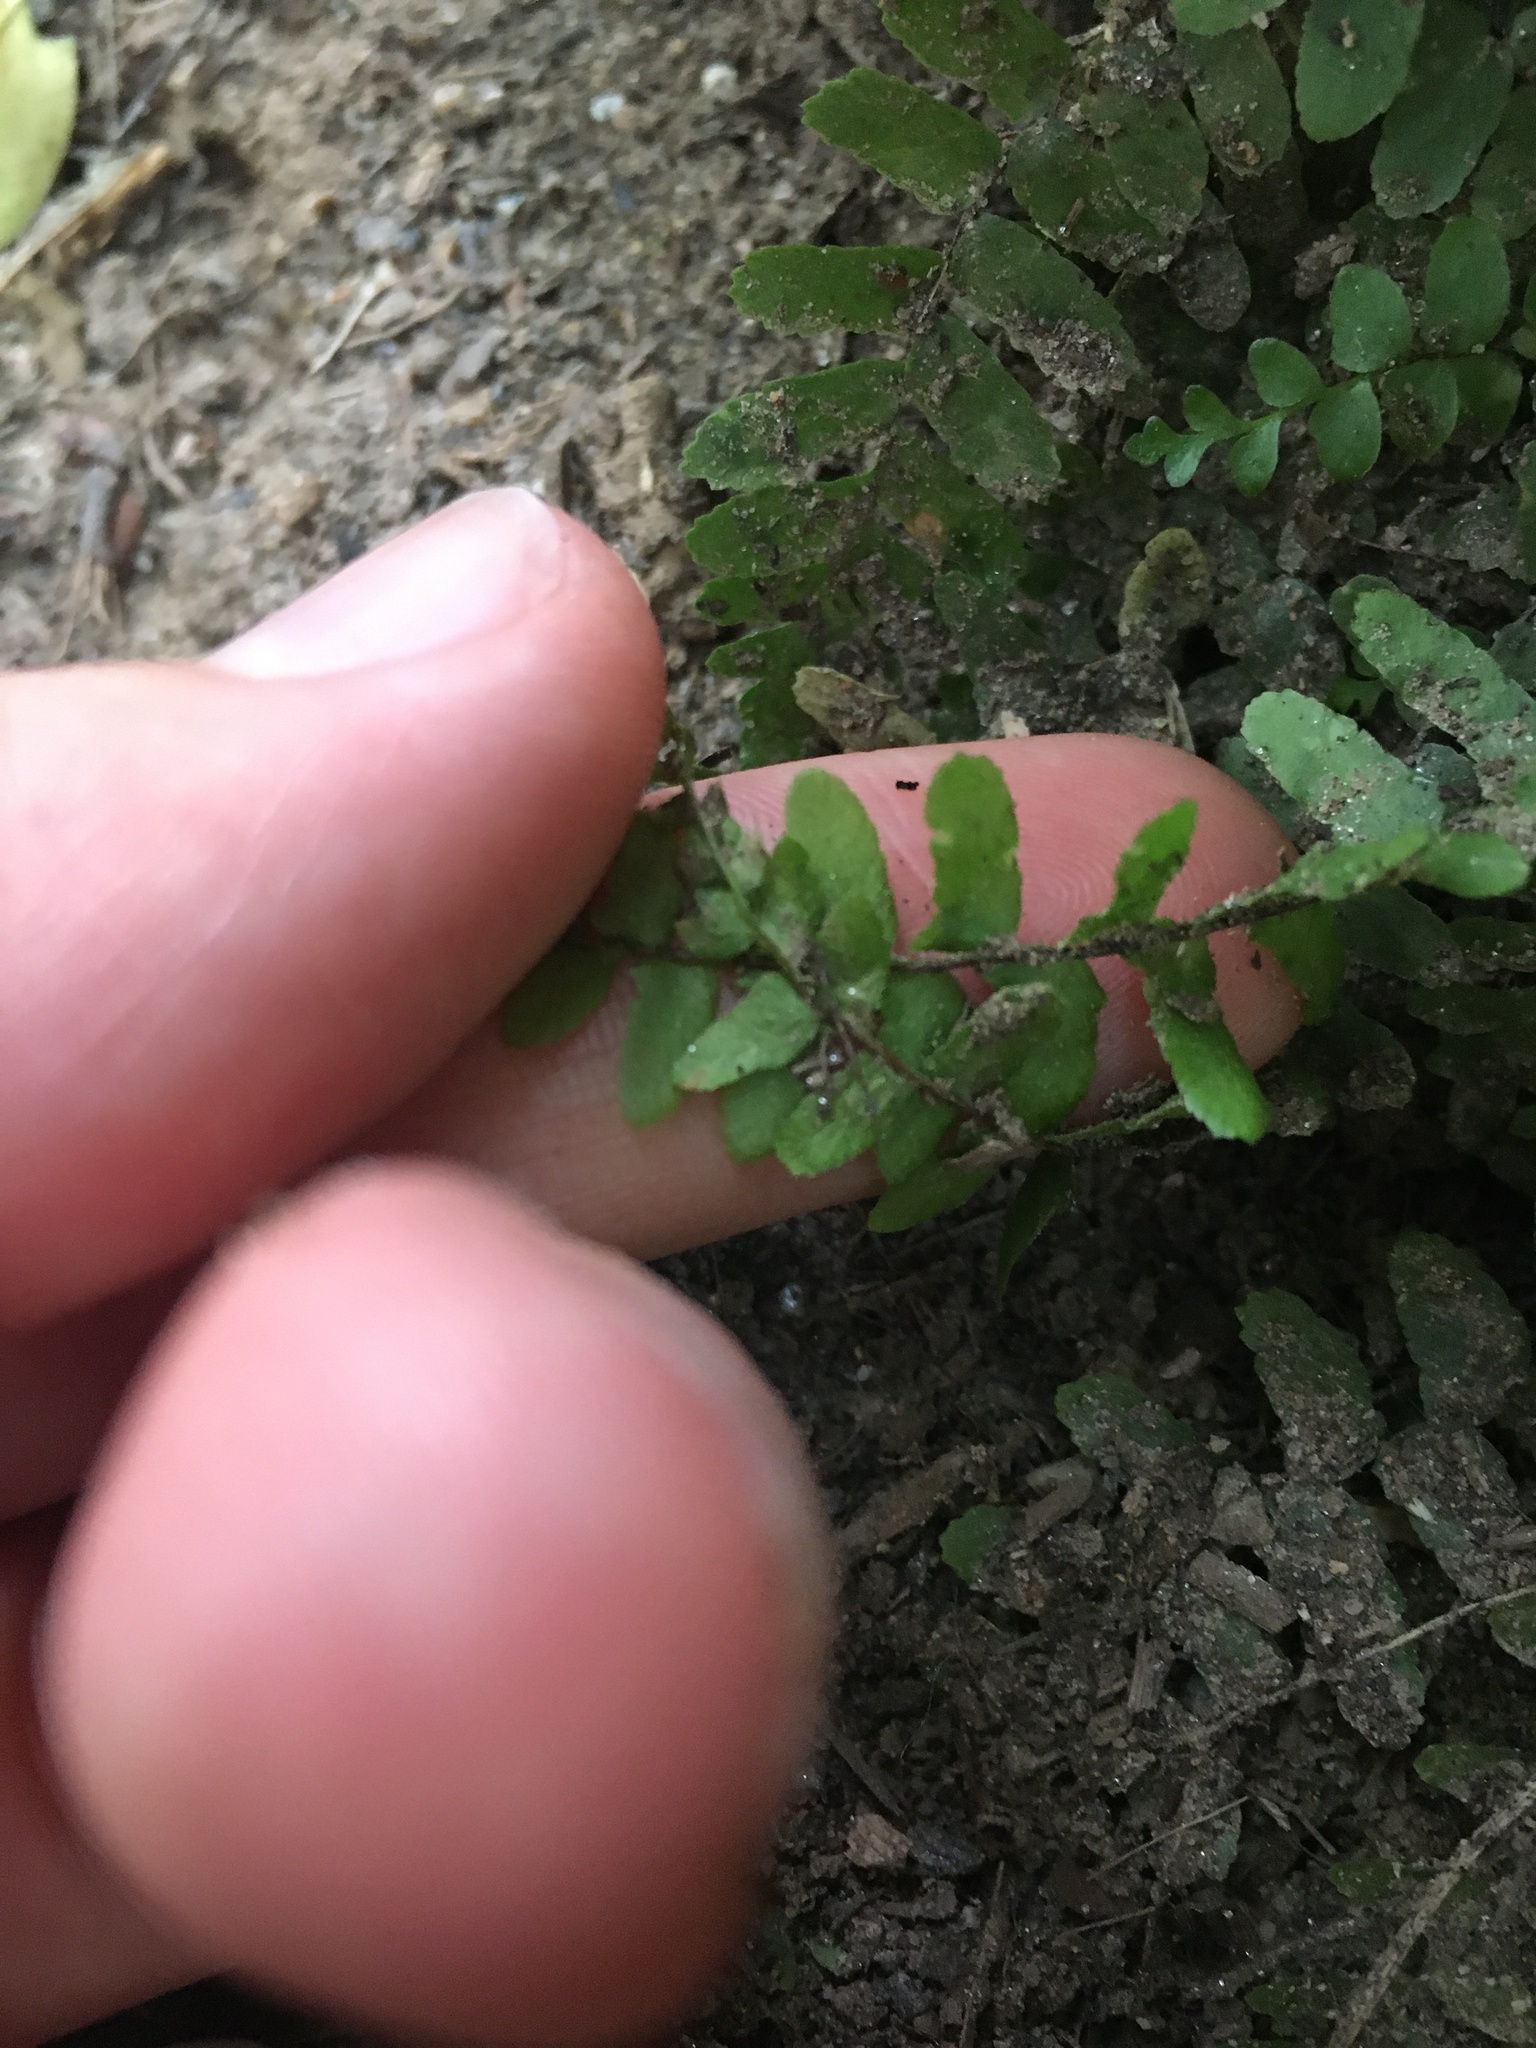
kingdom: Plantae
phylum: Tracheophyta
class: Polypodiopsida
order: Polypodiales
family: Aspleniaceae
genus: Asplenium
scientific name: Asplenium platyneuron
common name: Ebony spleenwort
